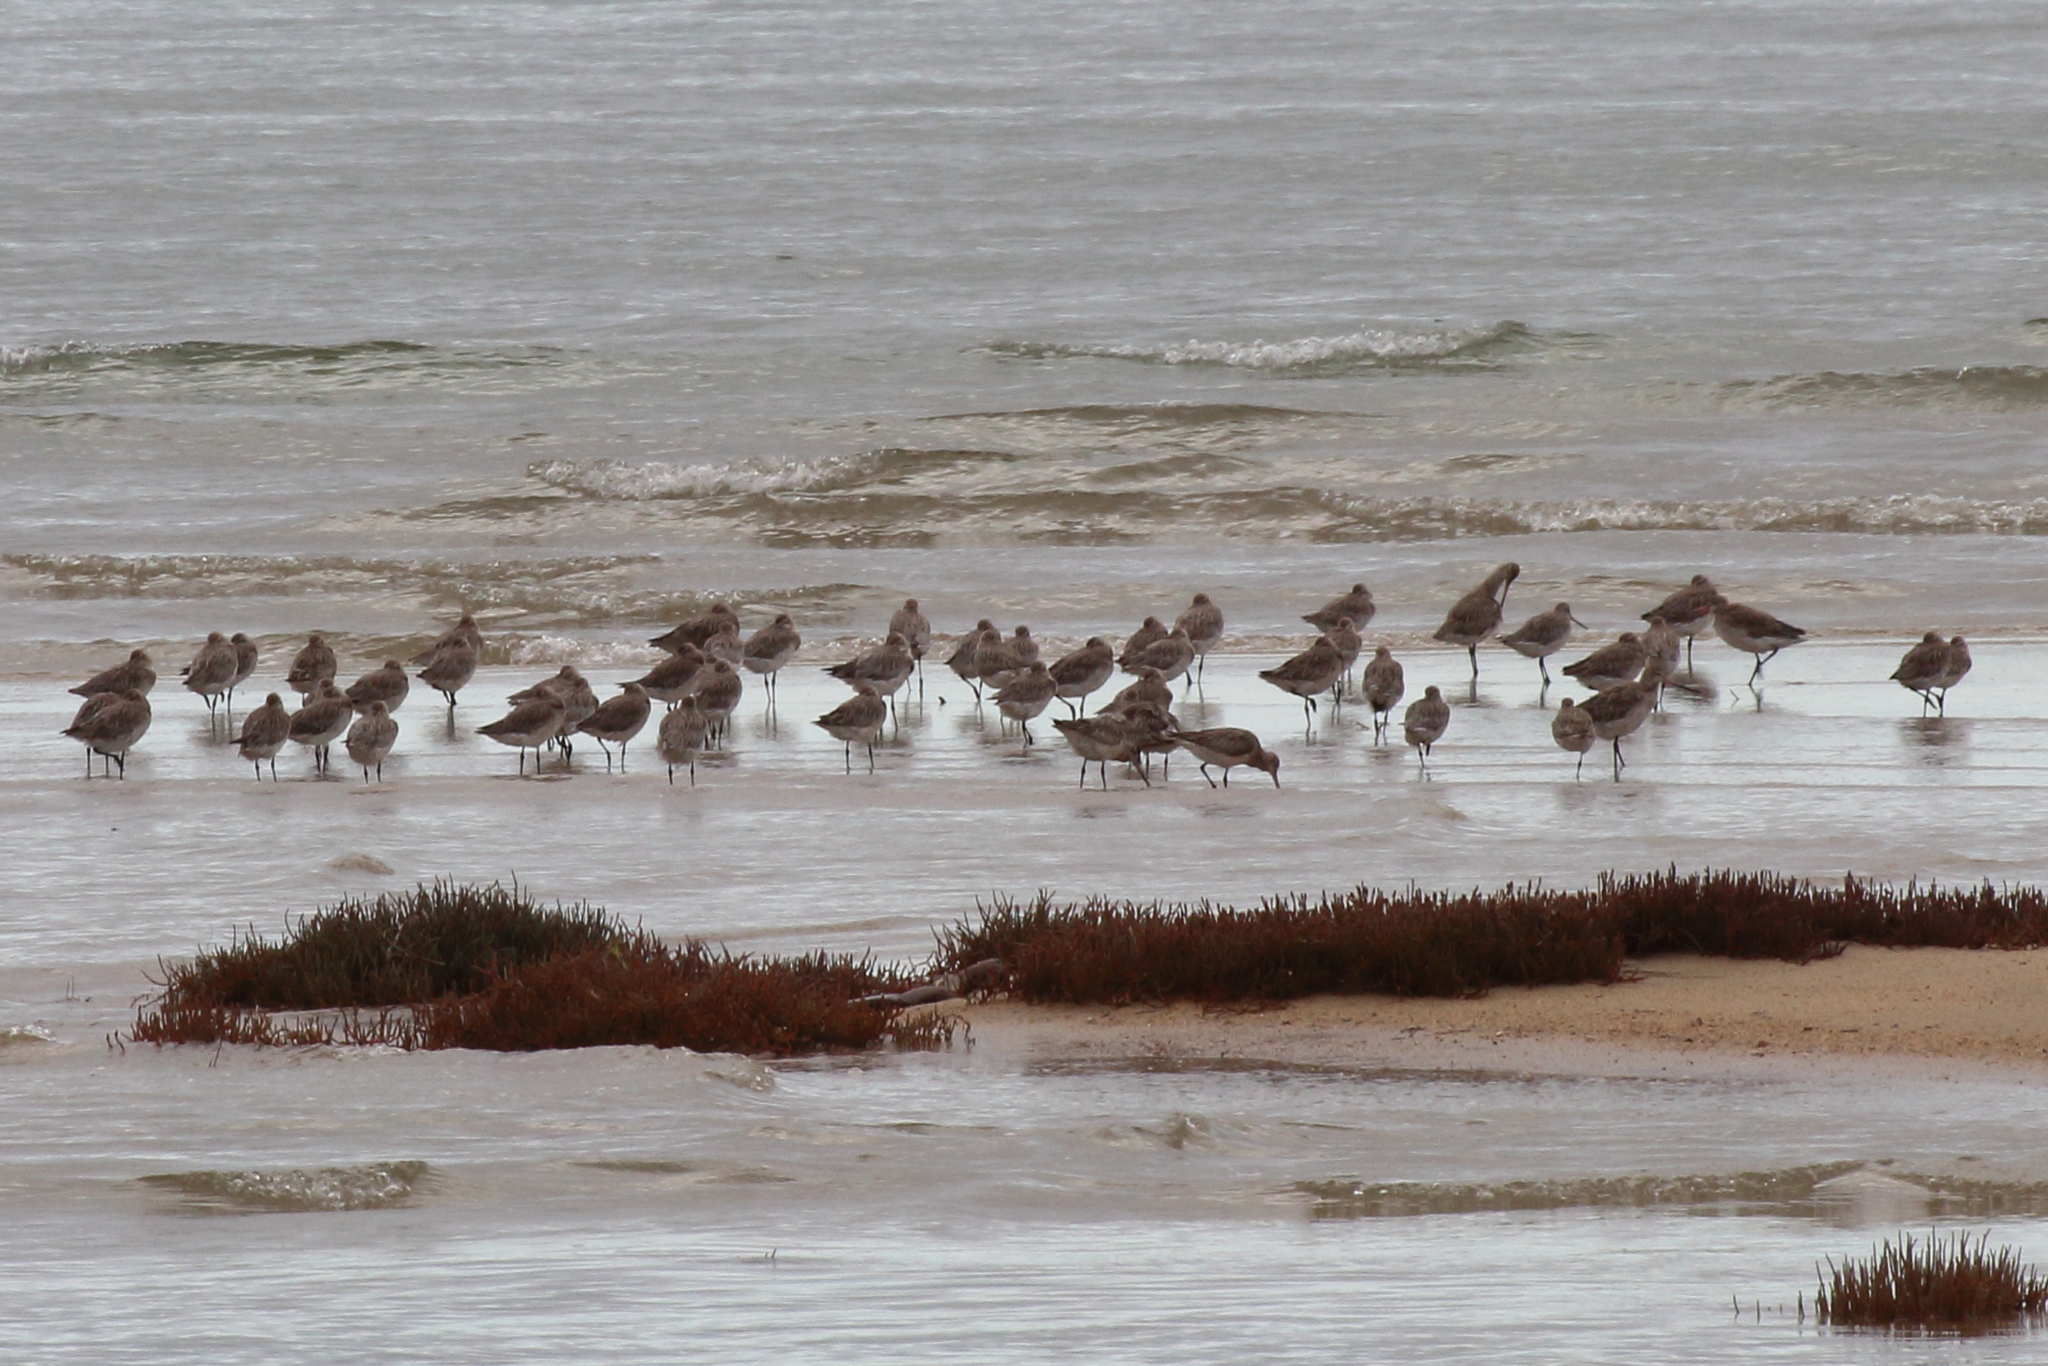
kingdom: Animalia
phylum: Chordata
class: Aves
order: Charadriiformes
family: Scolopacidae
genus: Limosa
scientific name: Limosa lapponica
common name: Bar-tailed godwit
